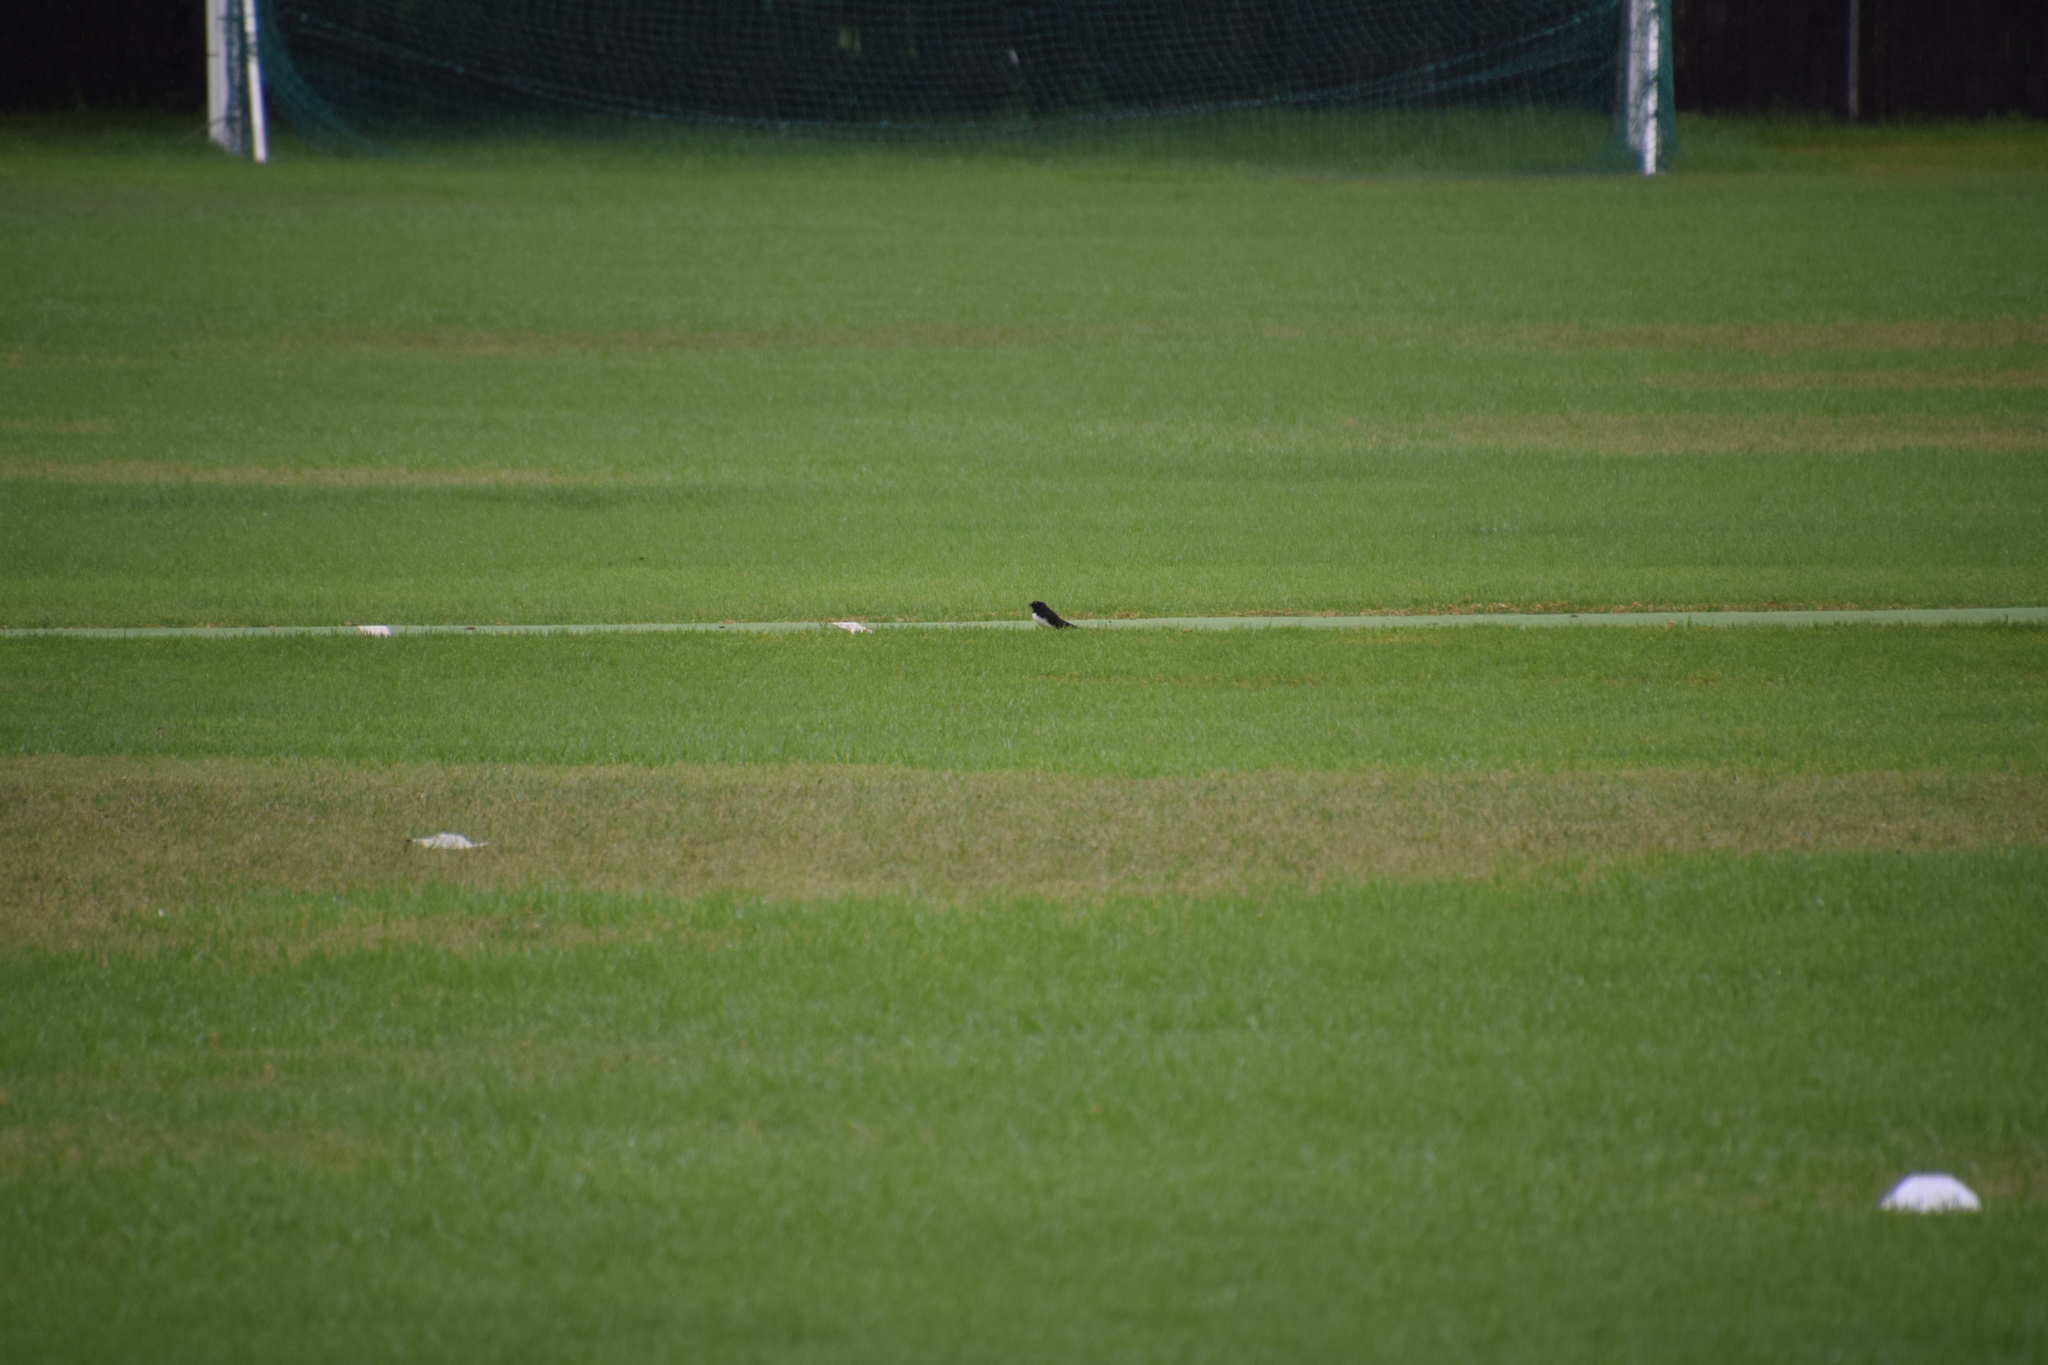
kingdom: Animalia
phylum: Chordata
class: Aves
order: Passeriformes
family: Rhipiduridae
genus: Rhipidura
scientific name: Rhipidura leucophrys
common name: Willie wagtail
